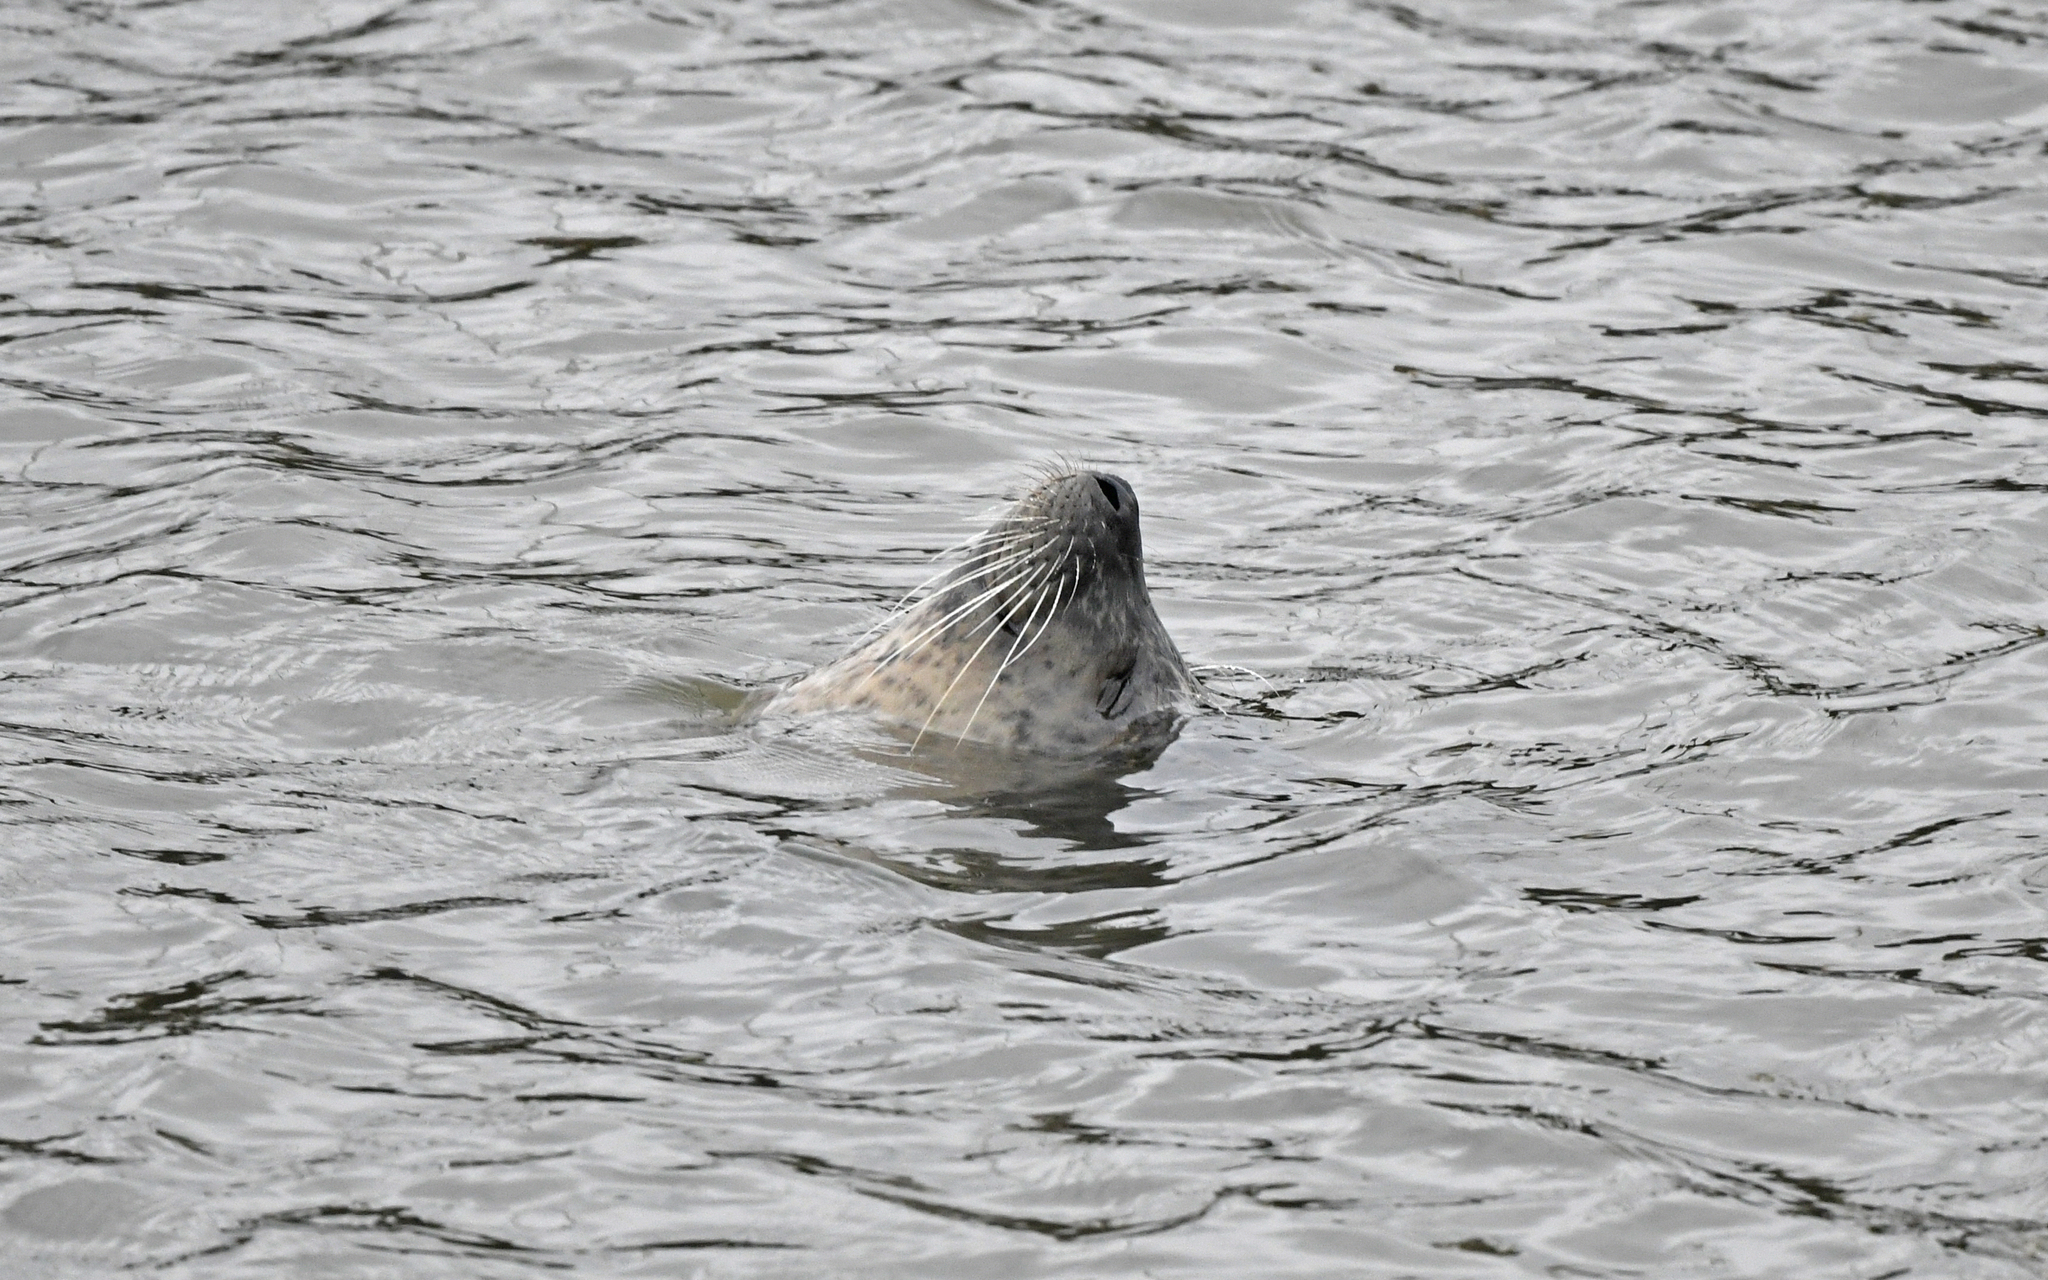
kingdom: Animalia
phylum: Chordata
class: Mammalia
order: Carnivora
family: Phocidae
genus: Phoca
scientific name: Phoca vitulina
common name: Harbor seal
